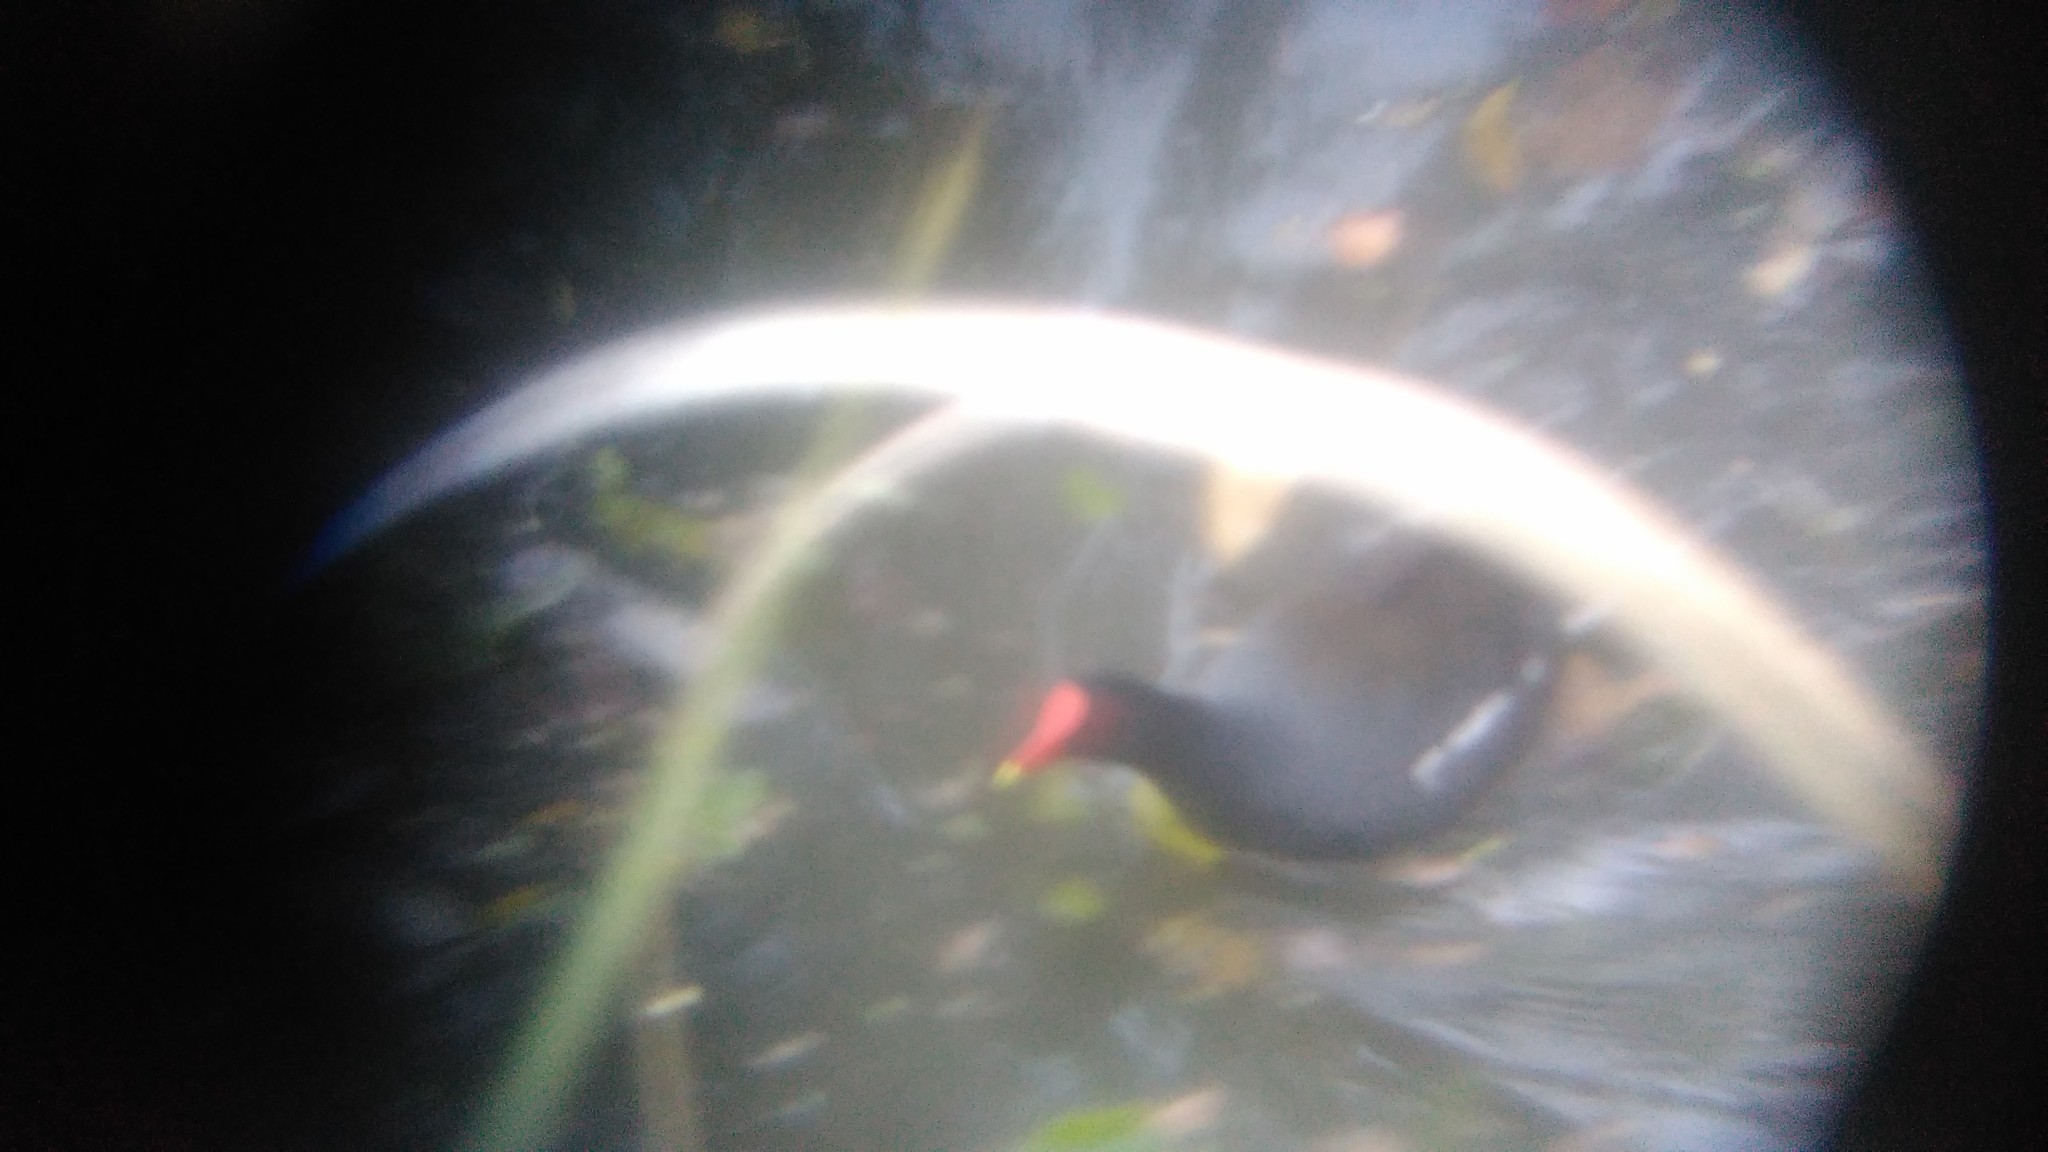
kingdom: Animalia
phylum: Chordata
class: Aves
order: Gruiformes
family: Rallidae
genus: Gallinula
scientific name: Gallinula chloropus
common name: Common moorhen
